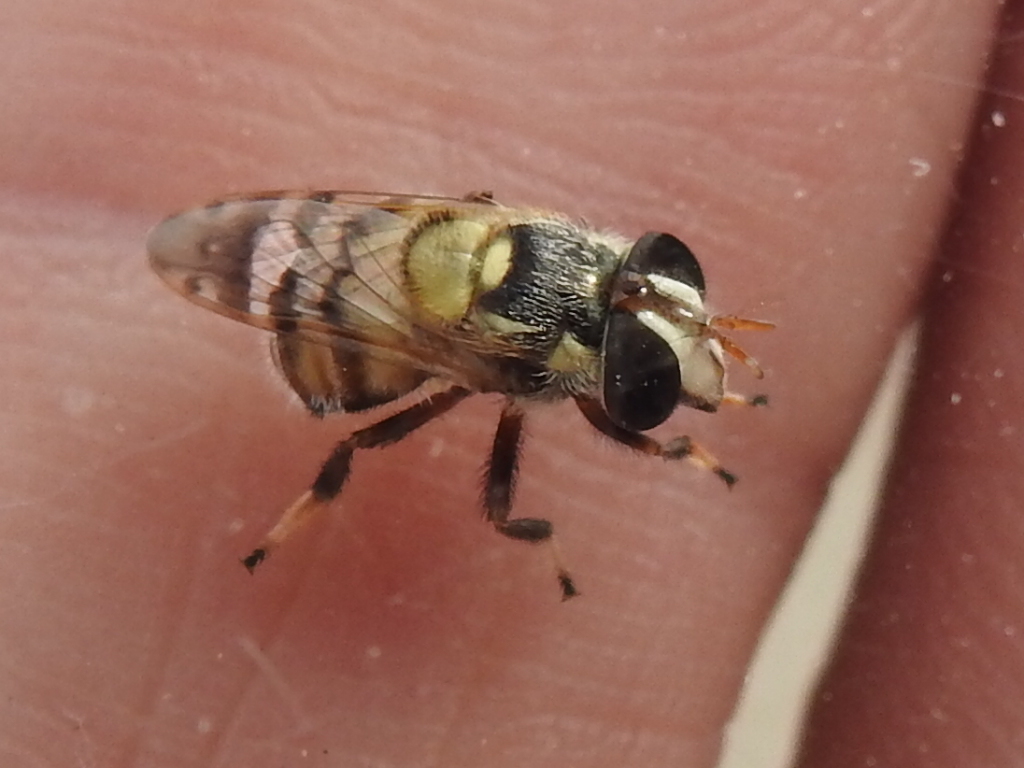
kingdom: Animalia
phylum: Arthropoda
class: Insecta
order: Diptera
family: Syrphidae
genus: Copestylum
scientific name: Copestylum tamaulipanum
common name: Syrphid fly
